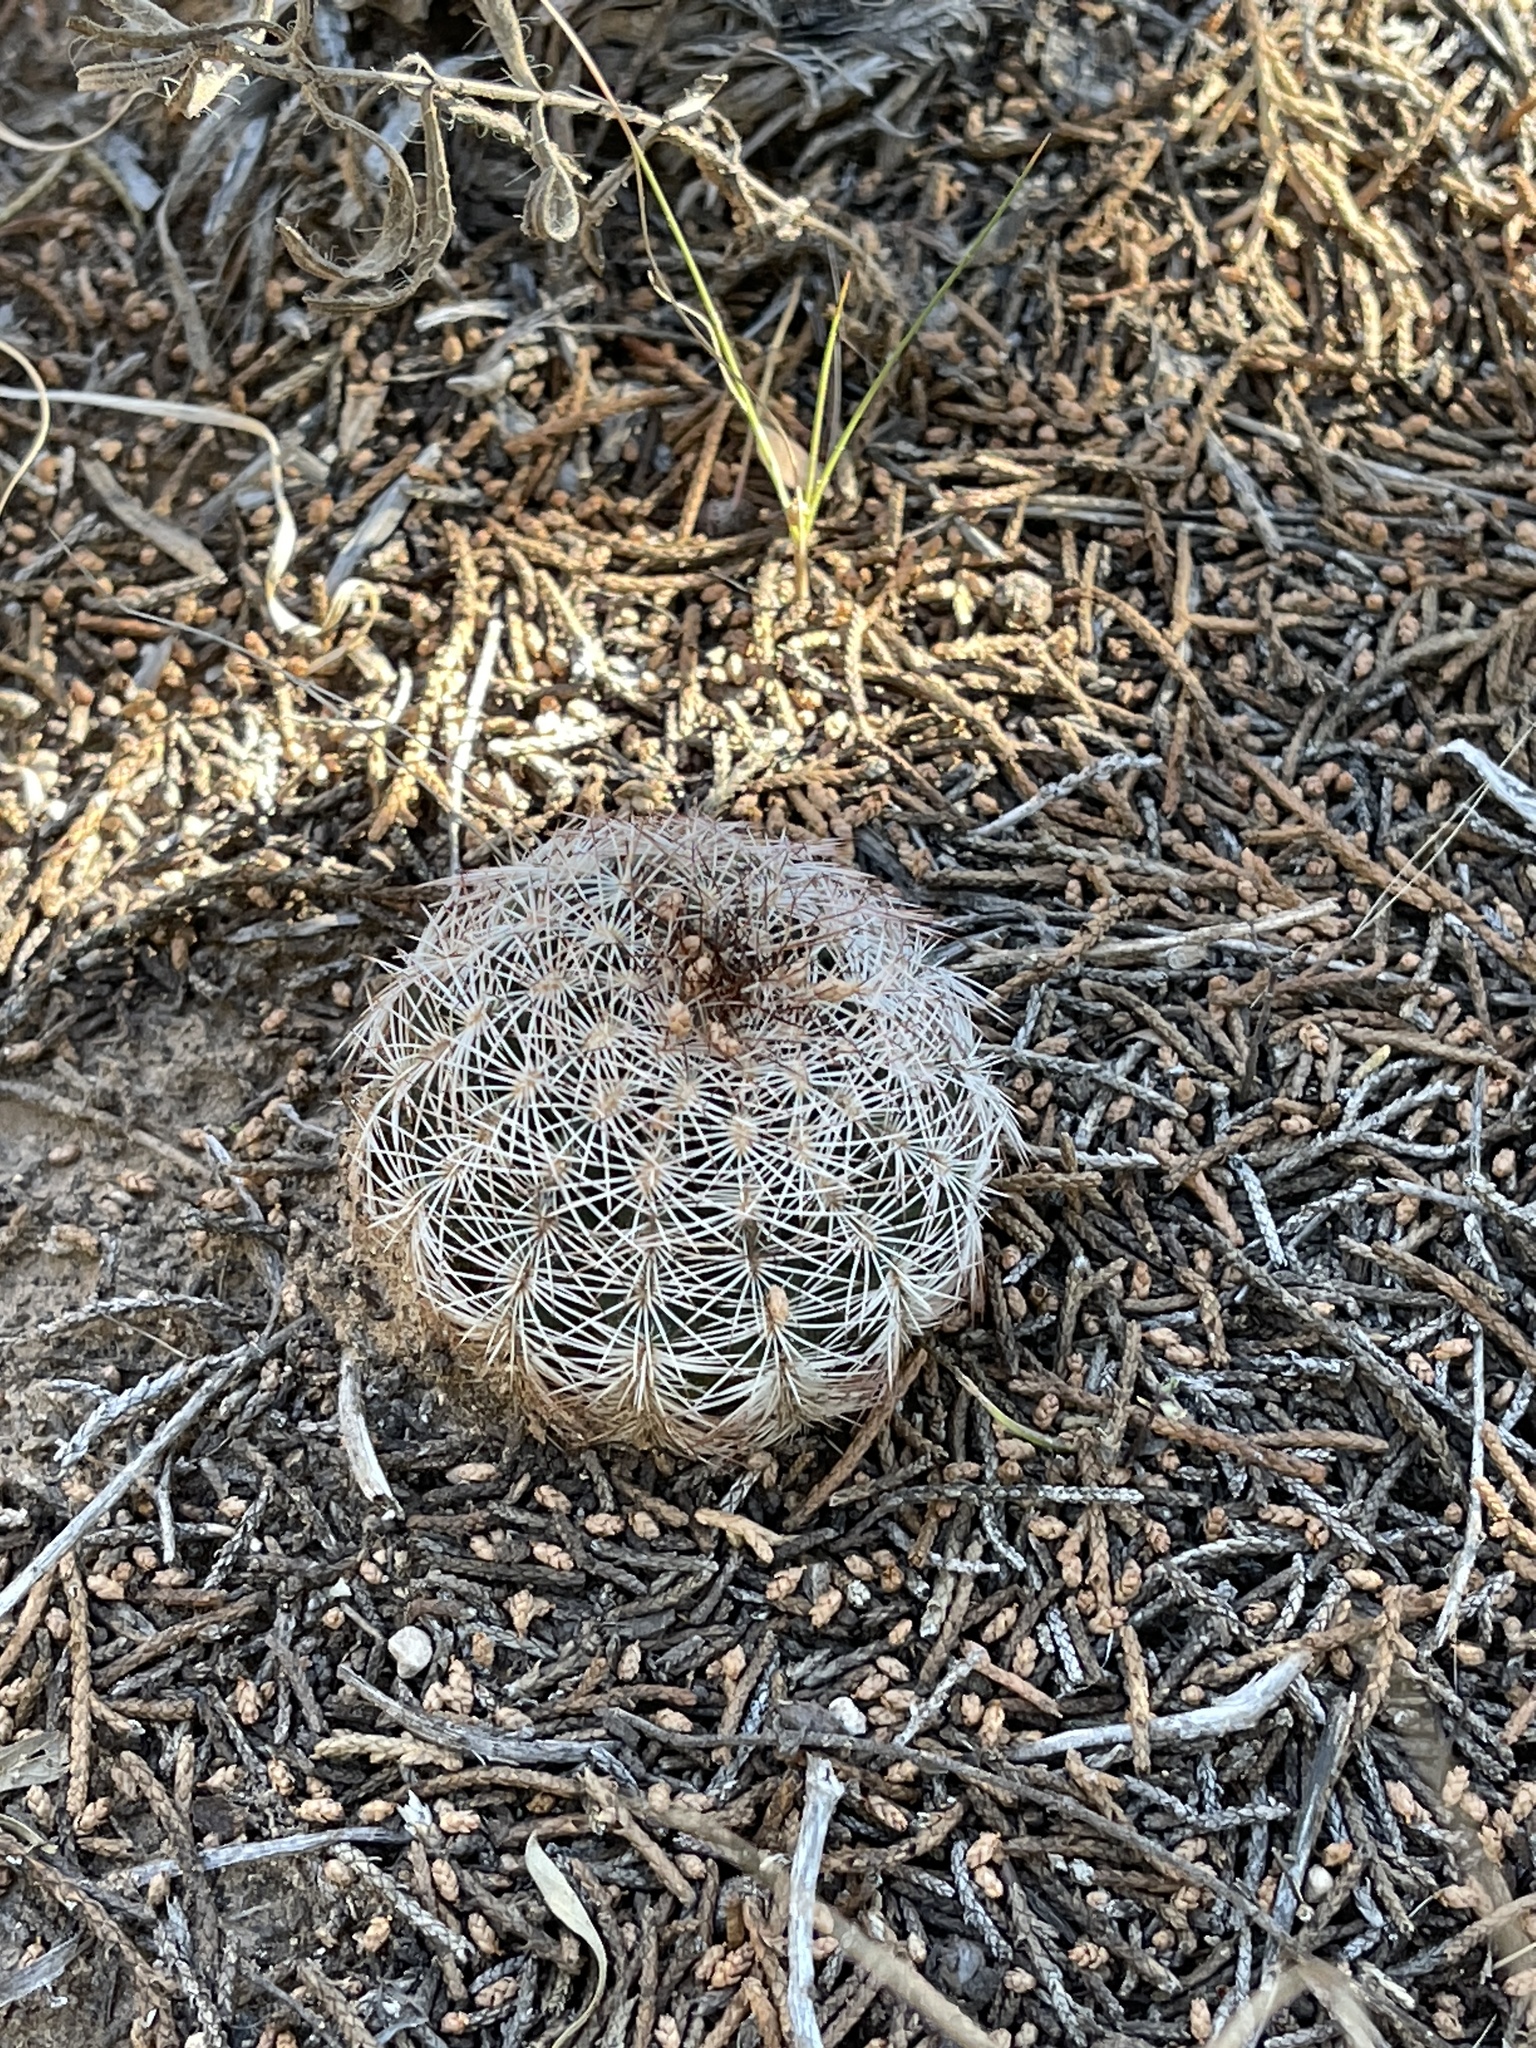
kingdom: Plantae
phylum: Tracheophyta
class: Magnoliopsida
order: Caryophyllales
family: Cactaceae
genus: Echinocereus
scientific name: Echinocereus reichenbachii
